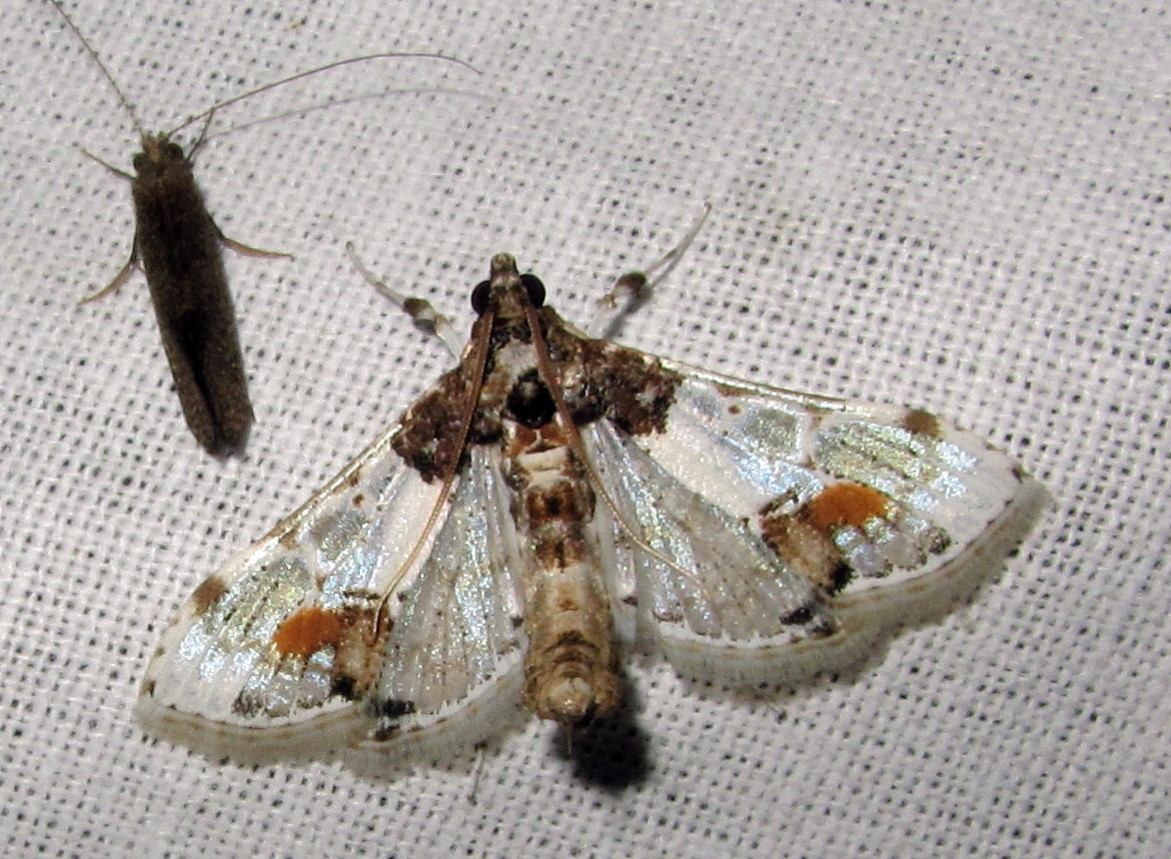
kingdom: Animalia
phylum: Arthropoda
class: Insecta
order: Lepidoptera
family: Crambidae
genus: Leucinodes
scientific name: Leucinodes orbonalis
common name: Aubergine pearl
